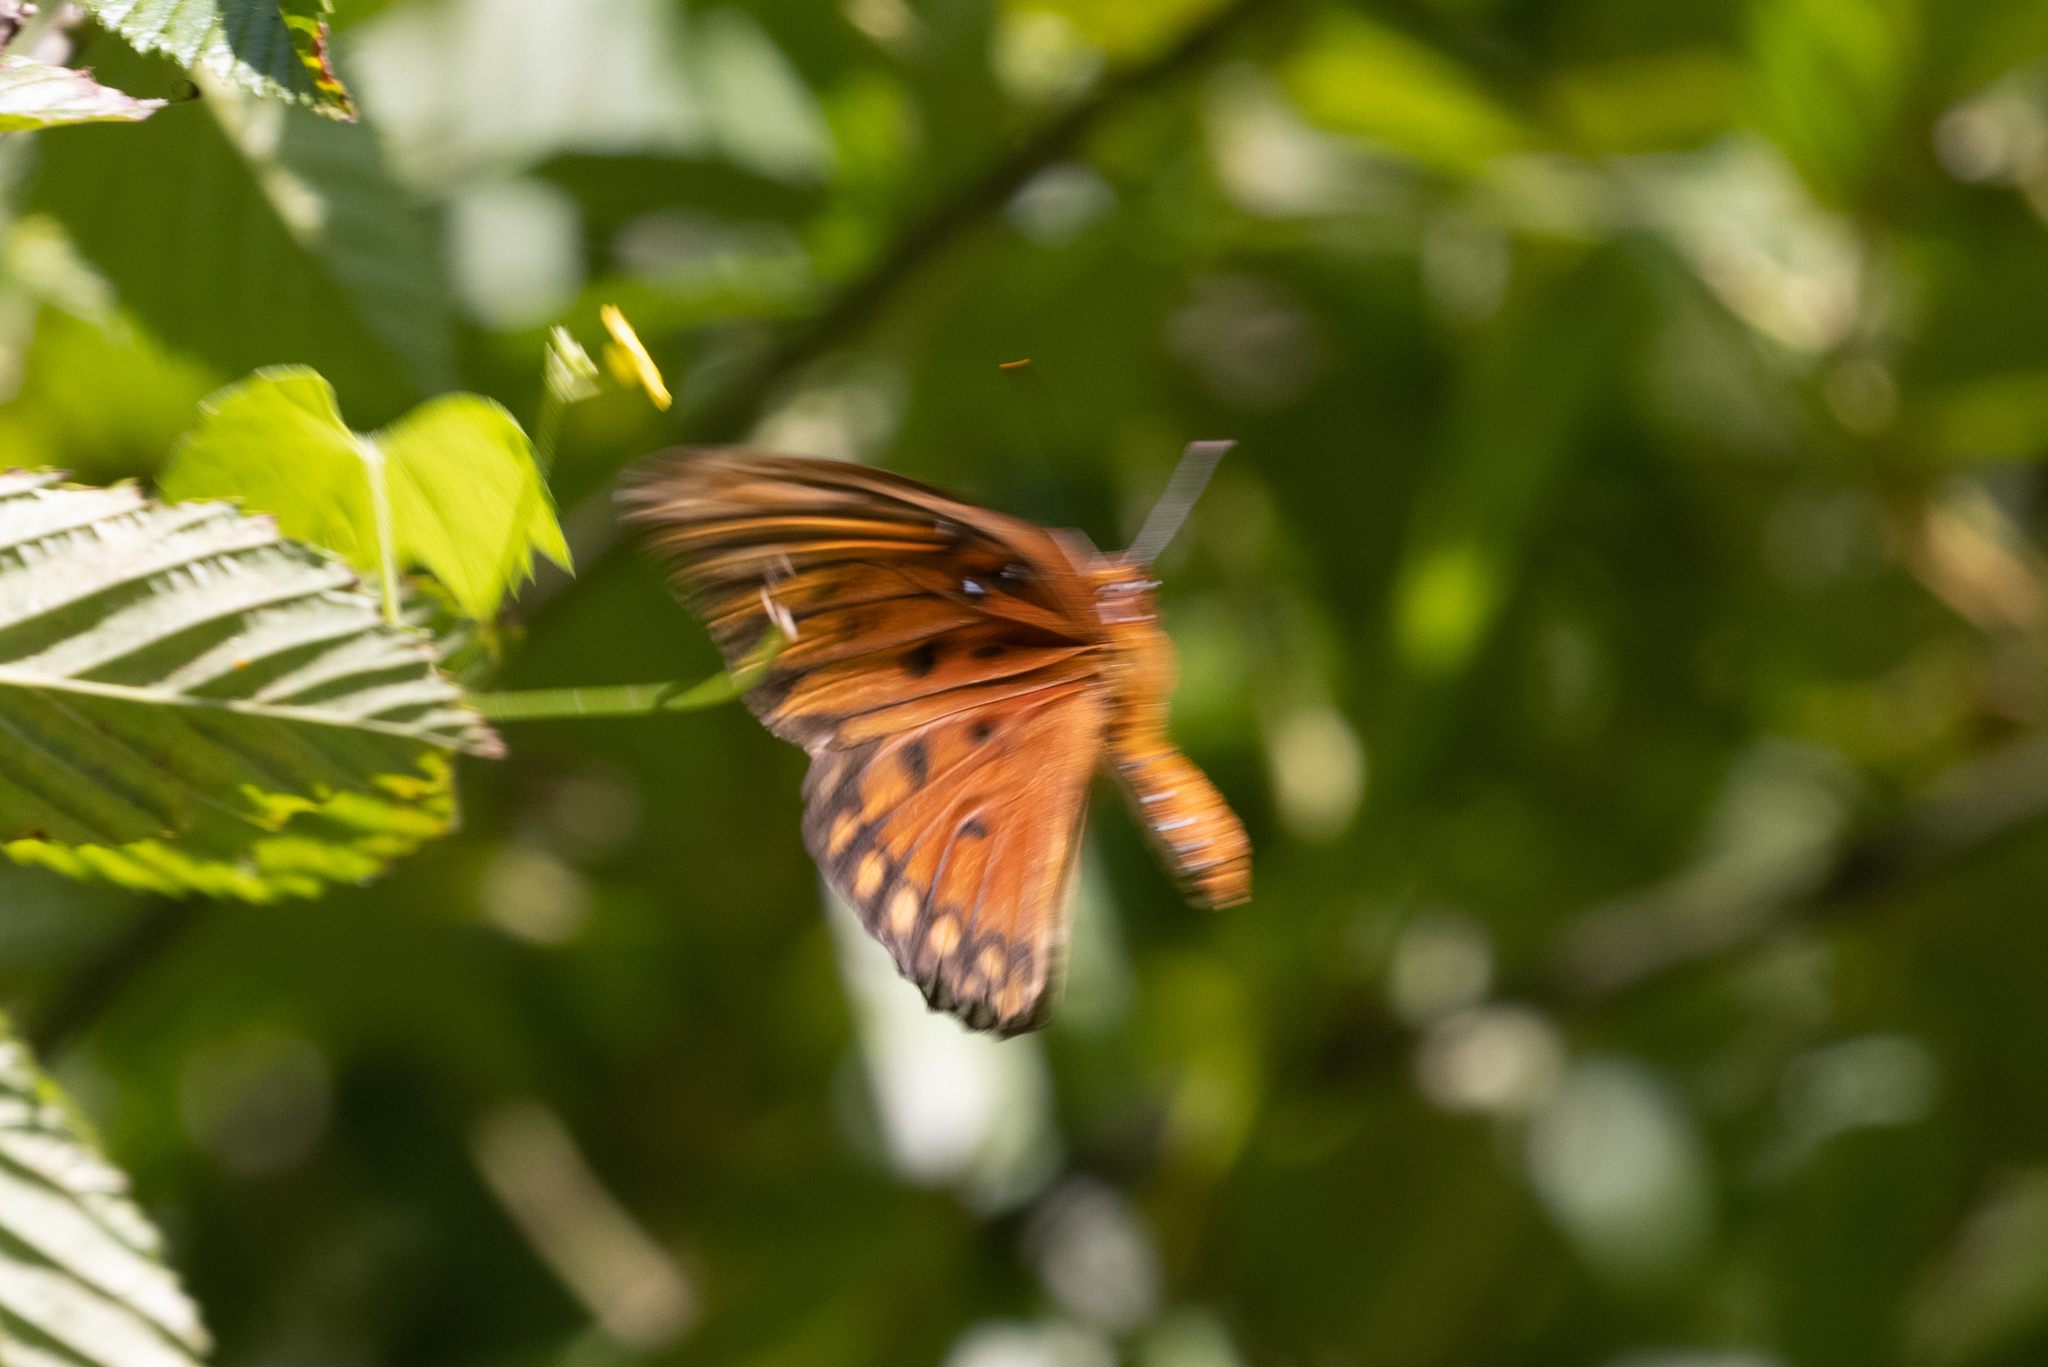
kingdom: Animalia
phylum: Arthropoda
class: Insecta
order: Lepidoptera
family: Nymphalidae
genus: Dione
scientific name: Dione vanillae
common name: Gulf fritillary
